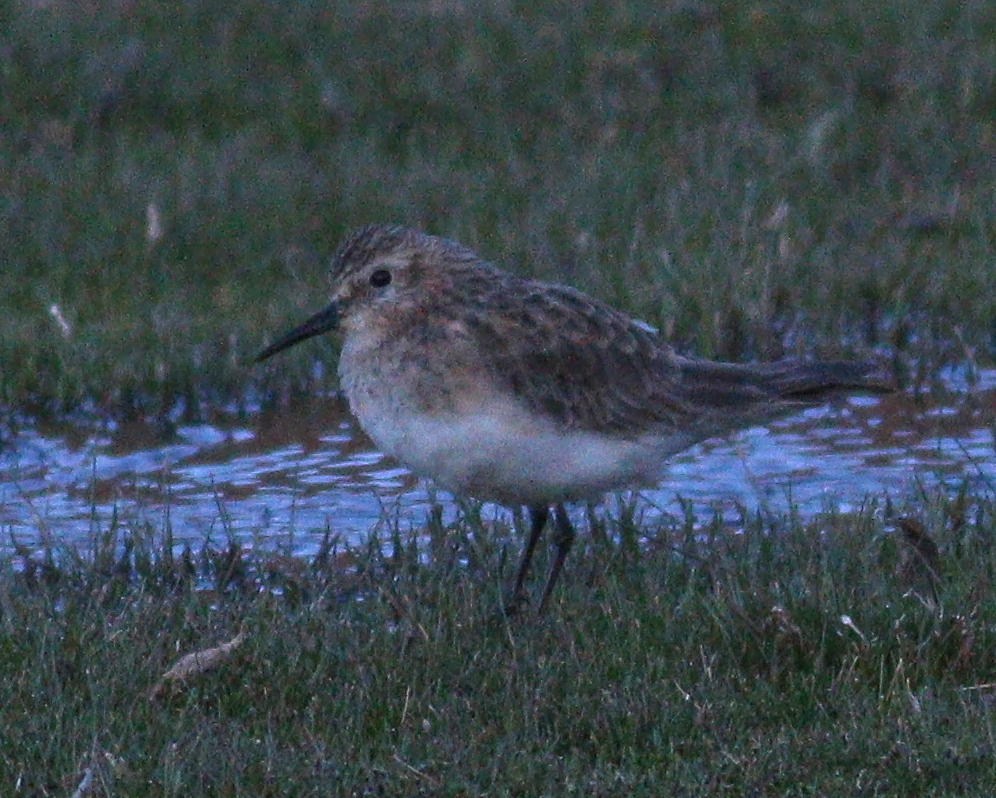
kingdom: Animalia
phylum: Chordata
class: Aves
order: Charadriiformes
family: Scolopacidae
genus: Calidris
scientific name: Calidris bairdii
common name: Baird's sandpiper
